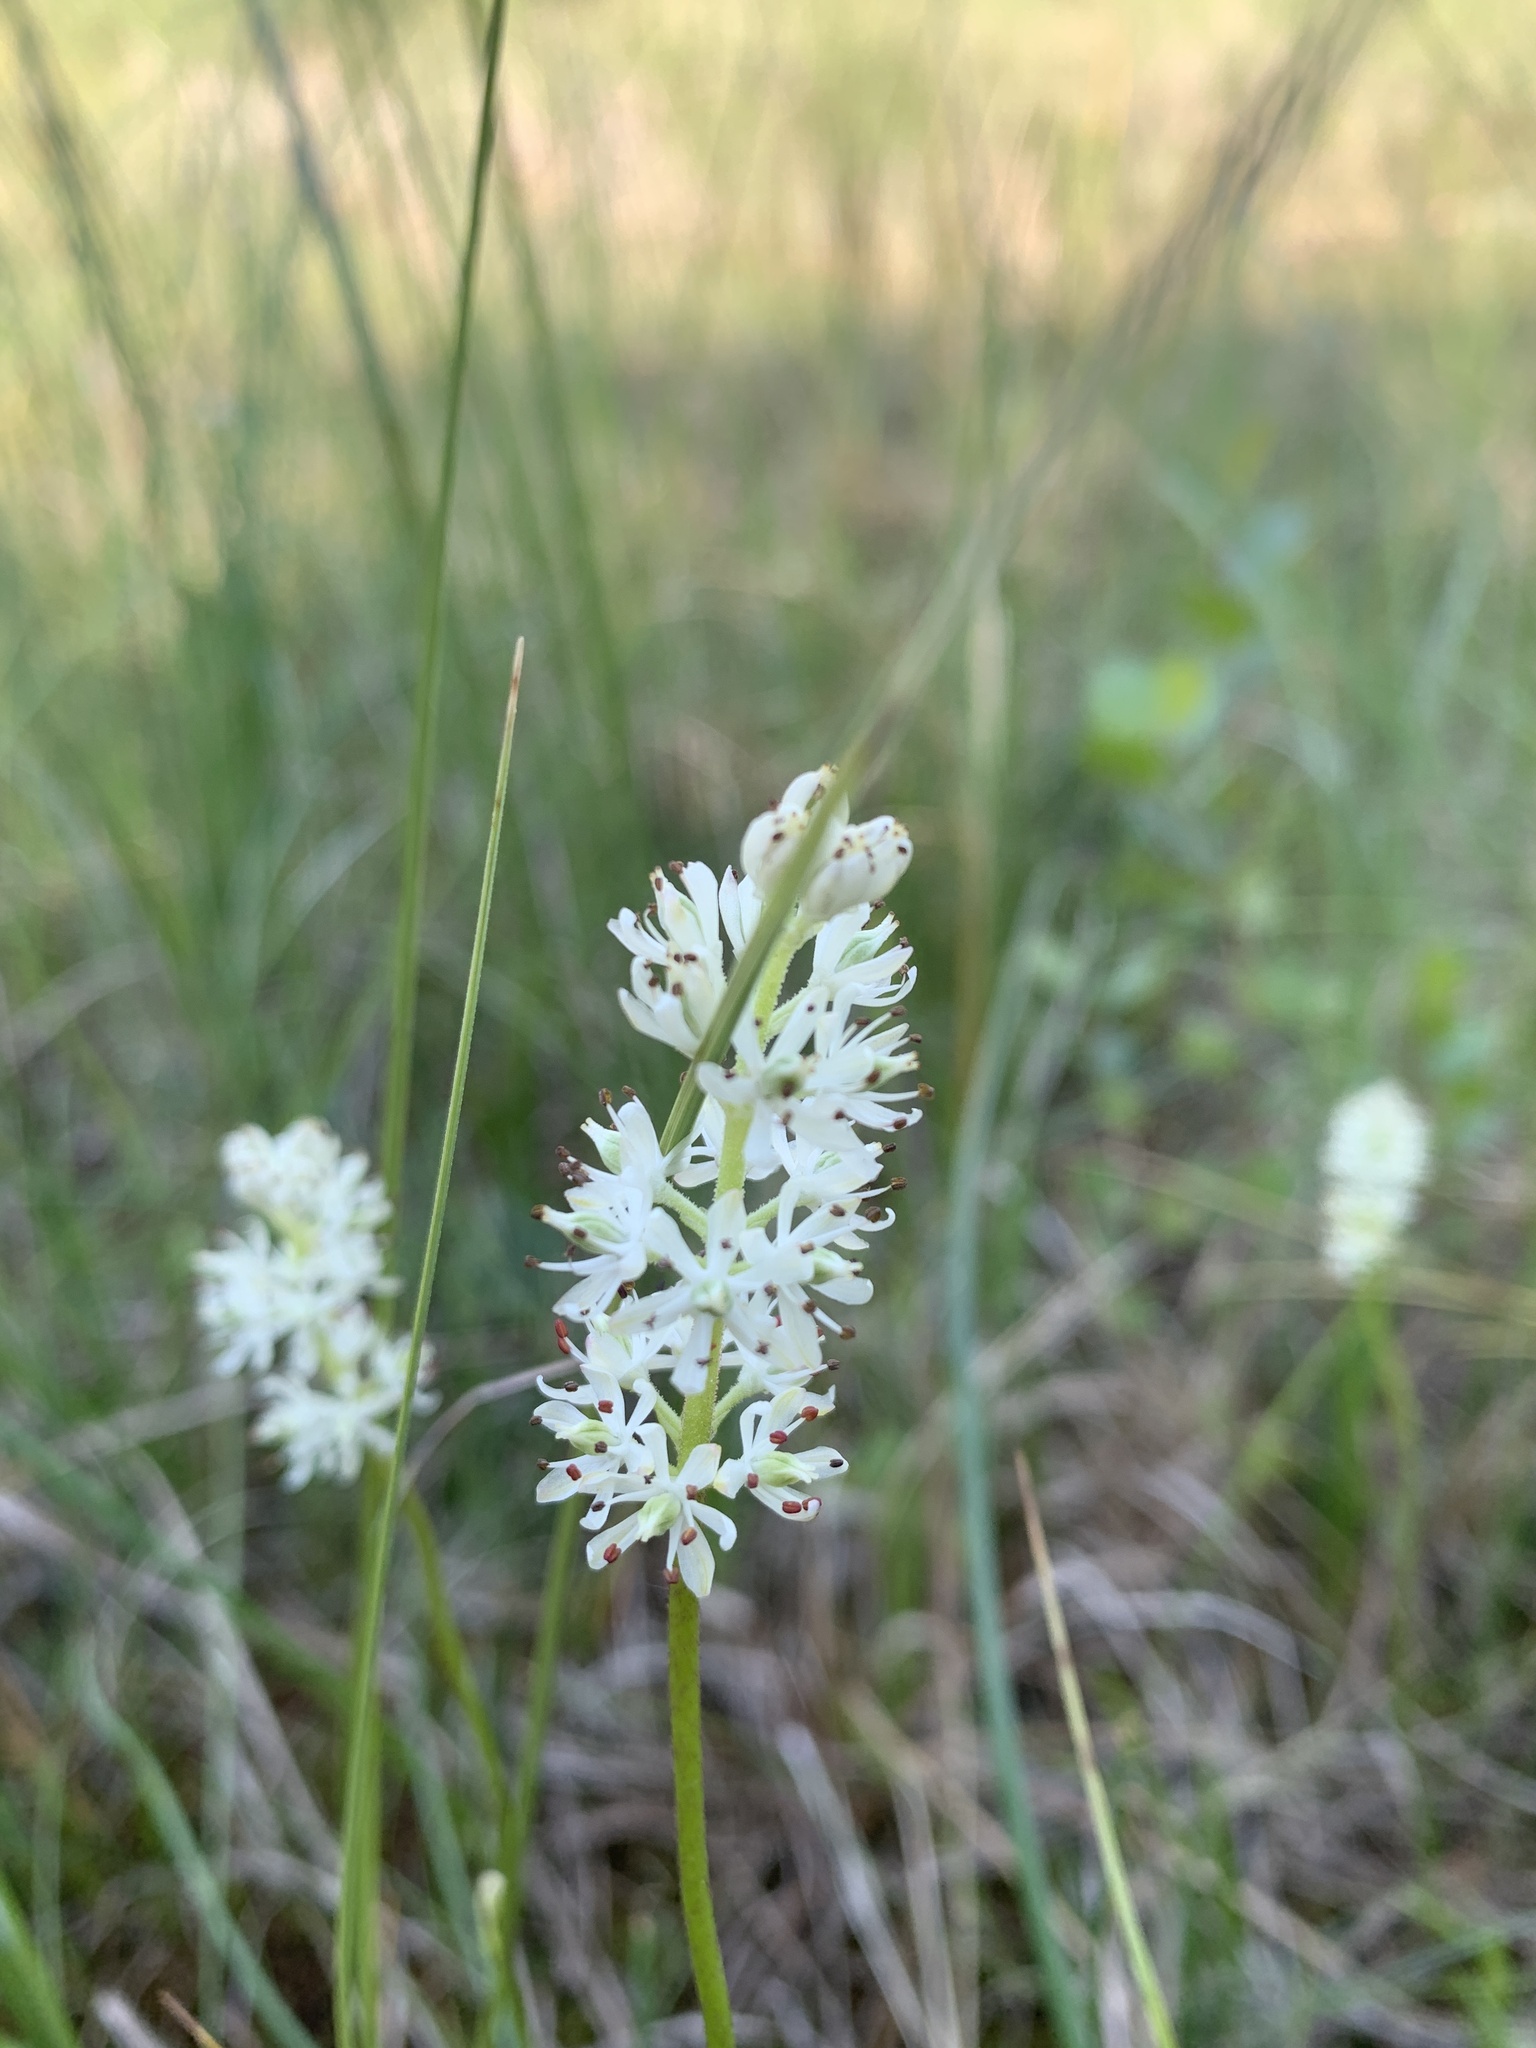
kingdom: Plantae
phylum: Tracheophyta
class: Liliopsida
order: Alismatales
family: Tofieldiaceae
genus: Triantha
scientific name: Triantha glutinosa
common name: Glutinous tofieldia
